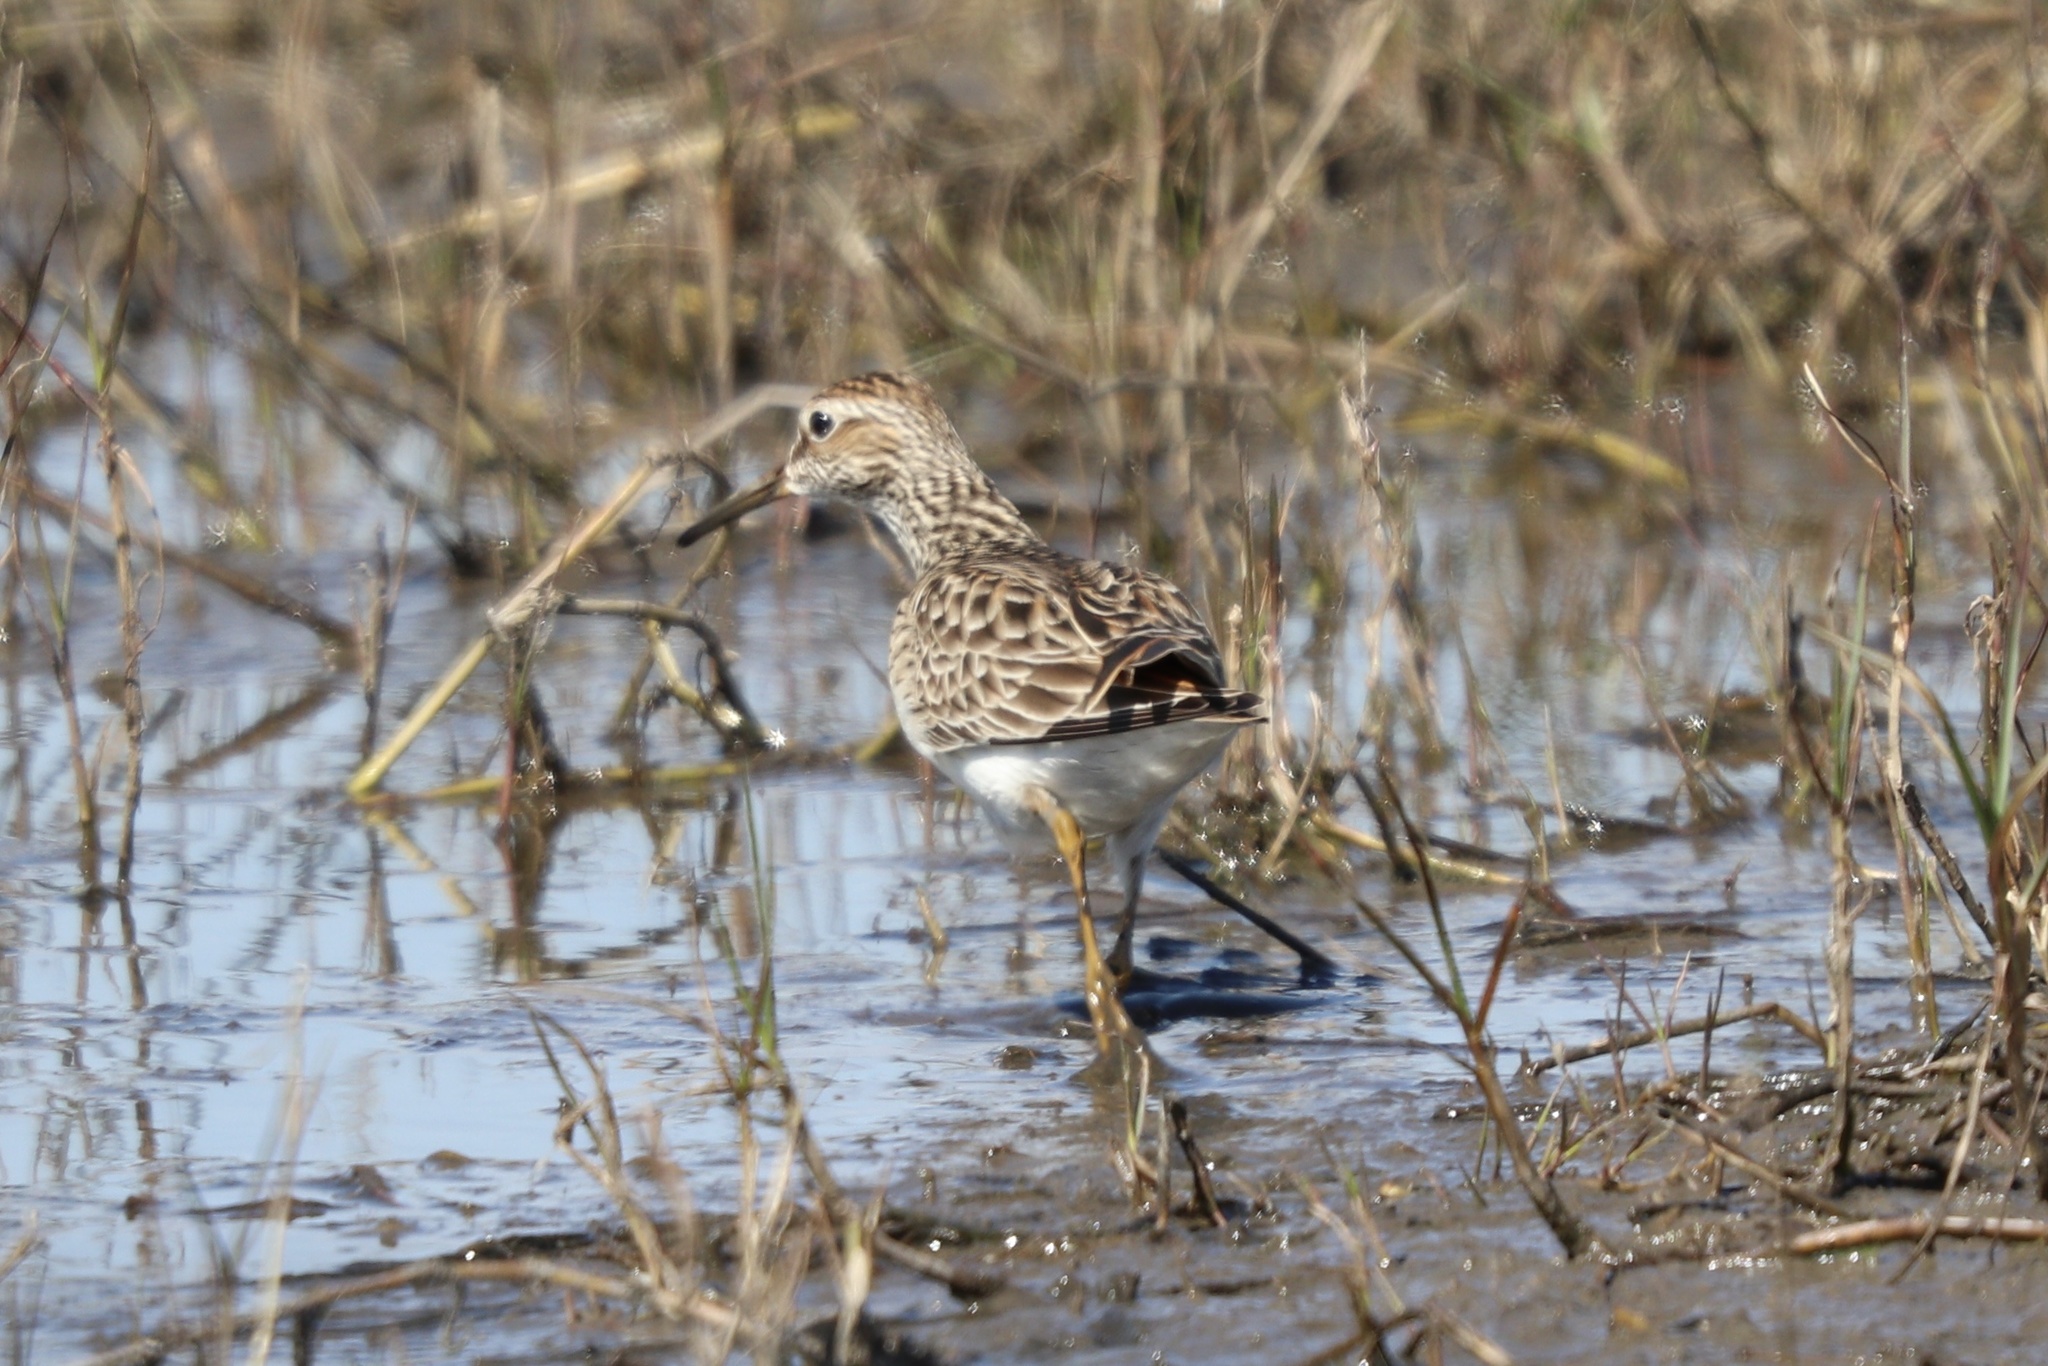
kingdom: Animalia
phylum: Chordata
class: Aves
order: Charadriiformes
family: Scolopacidae
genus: Calidris
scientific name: Calidris melanotos
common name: Pectoral sandpiper
